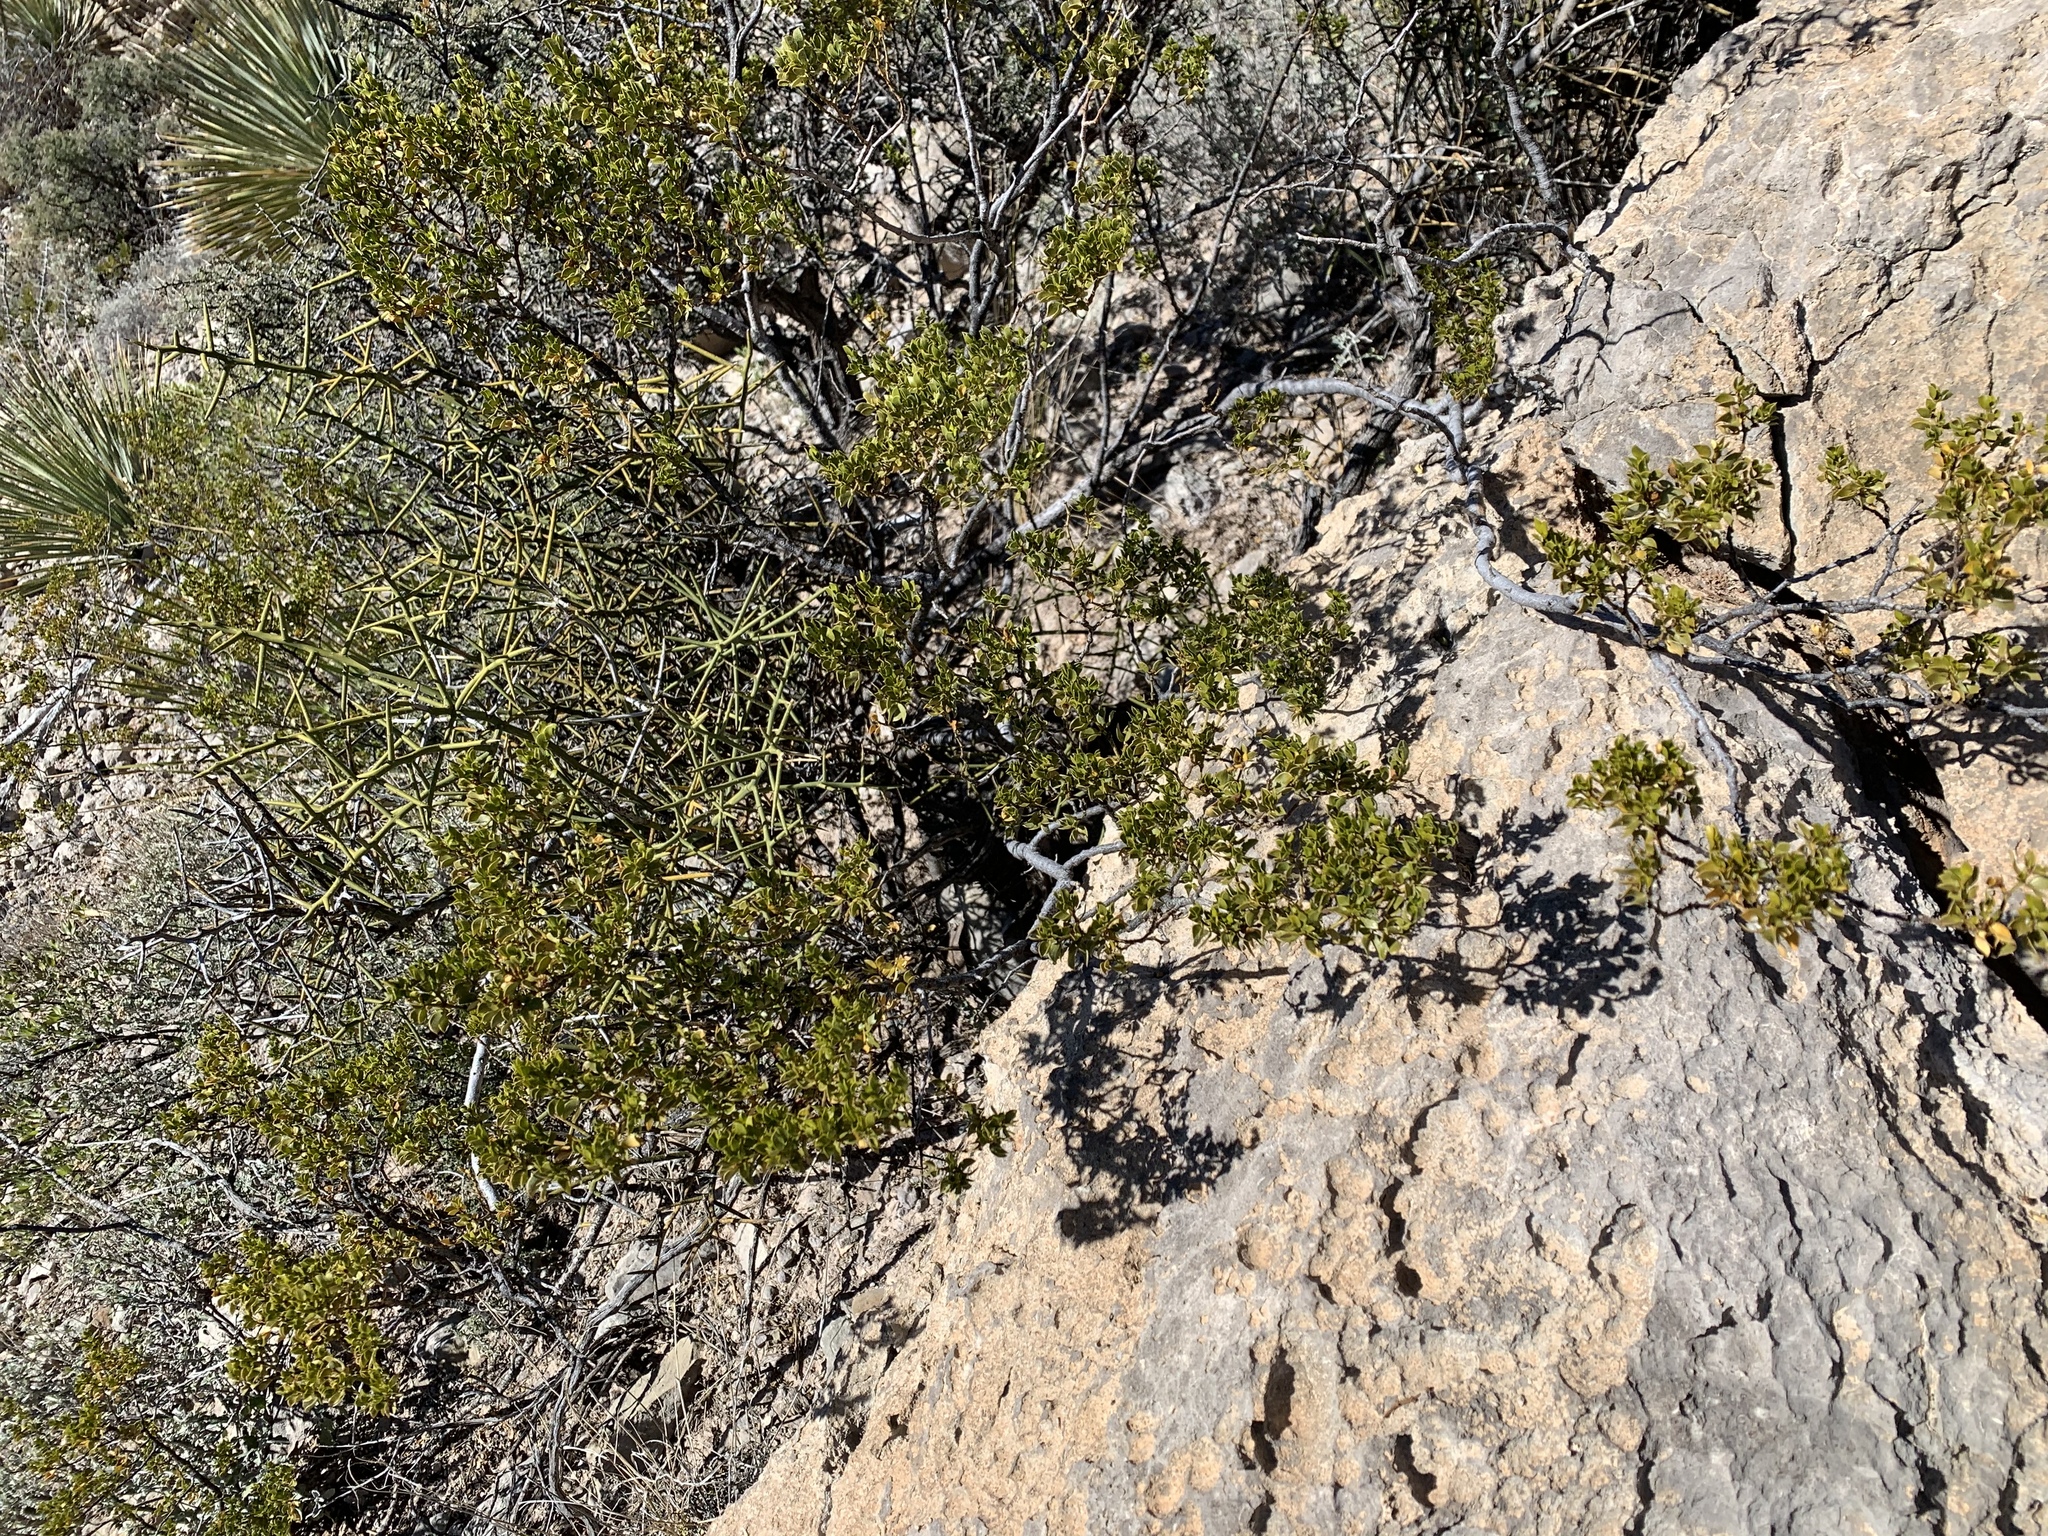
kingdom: Plantae
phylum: Tracheophyta
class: Magnoliopsida
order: Zygophyllales
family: Zygophyllaceae
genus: Larrea
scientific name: Larrea tridentata
